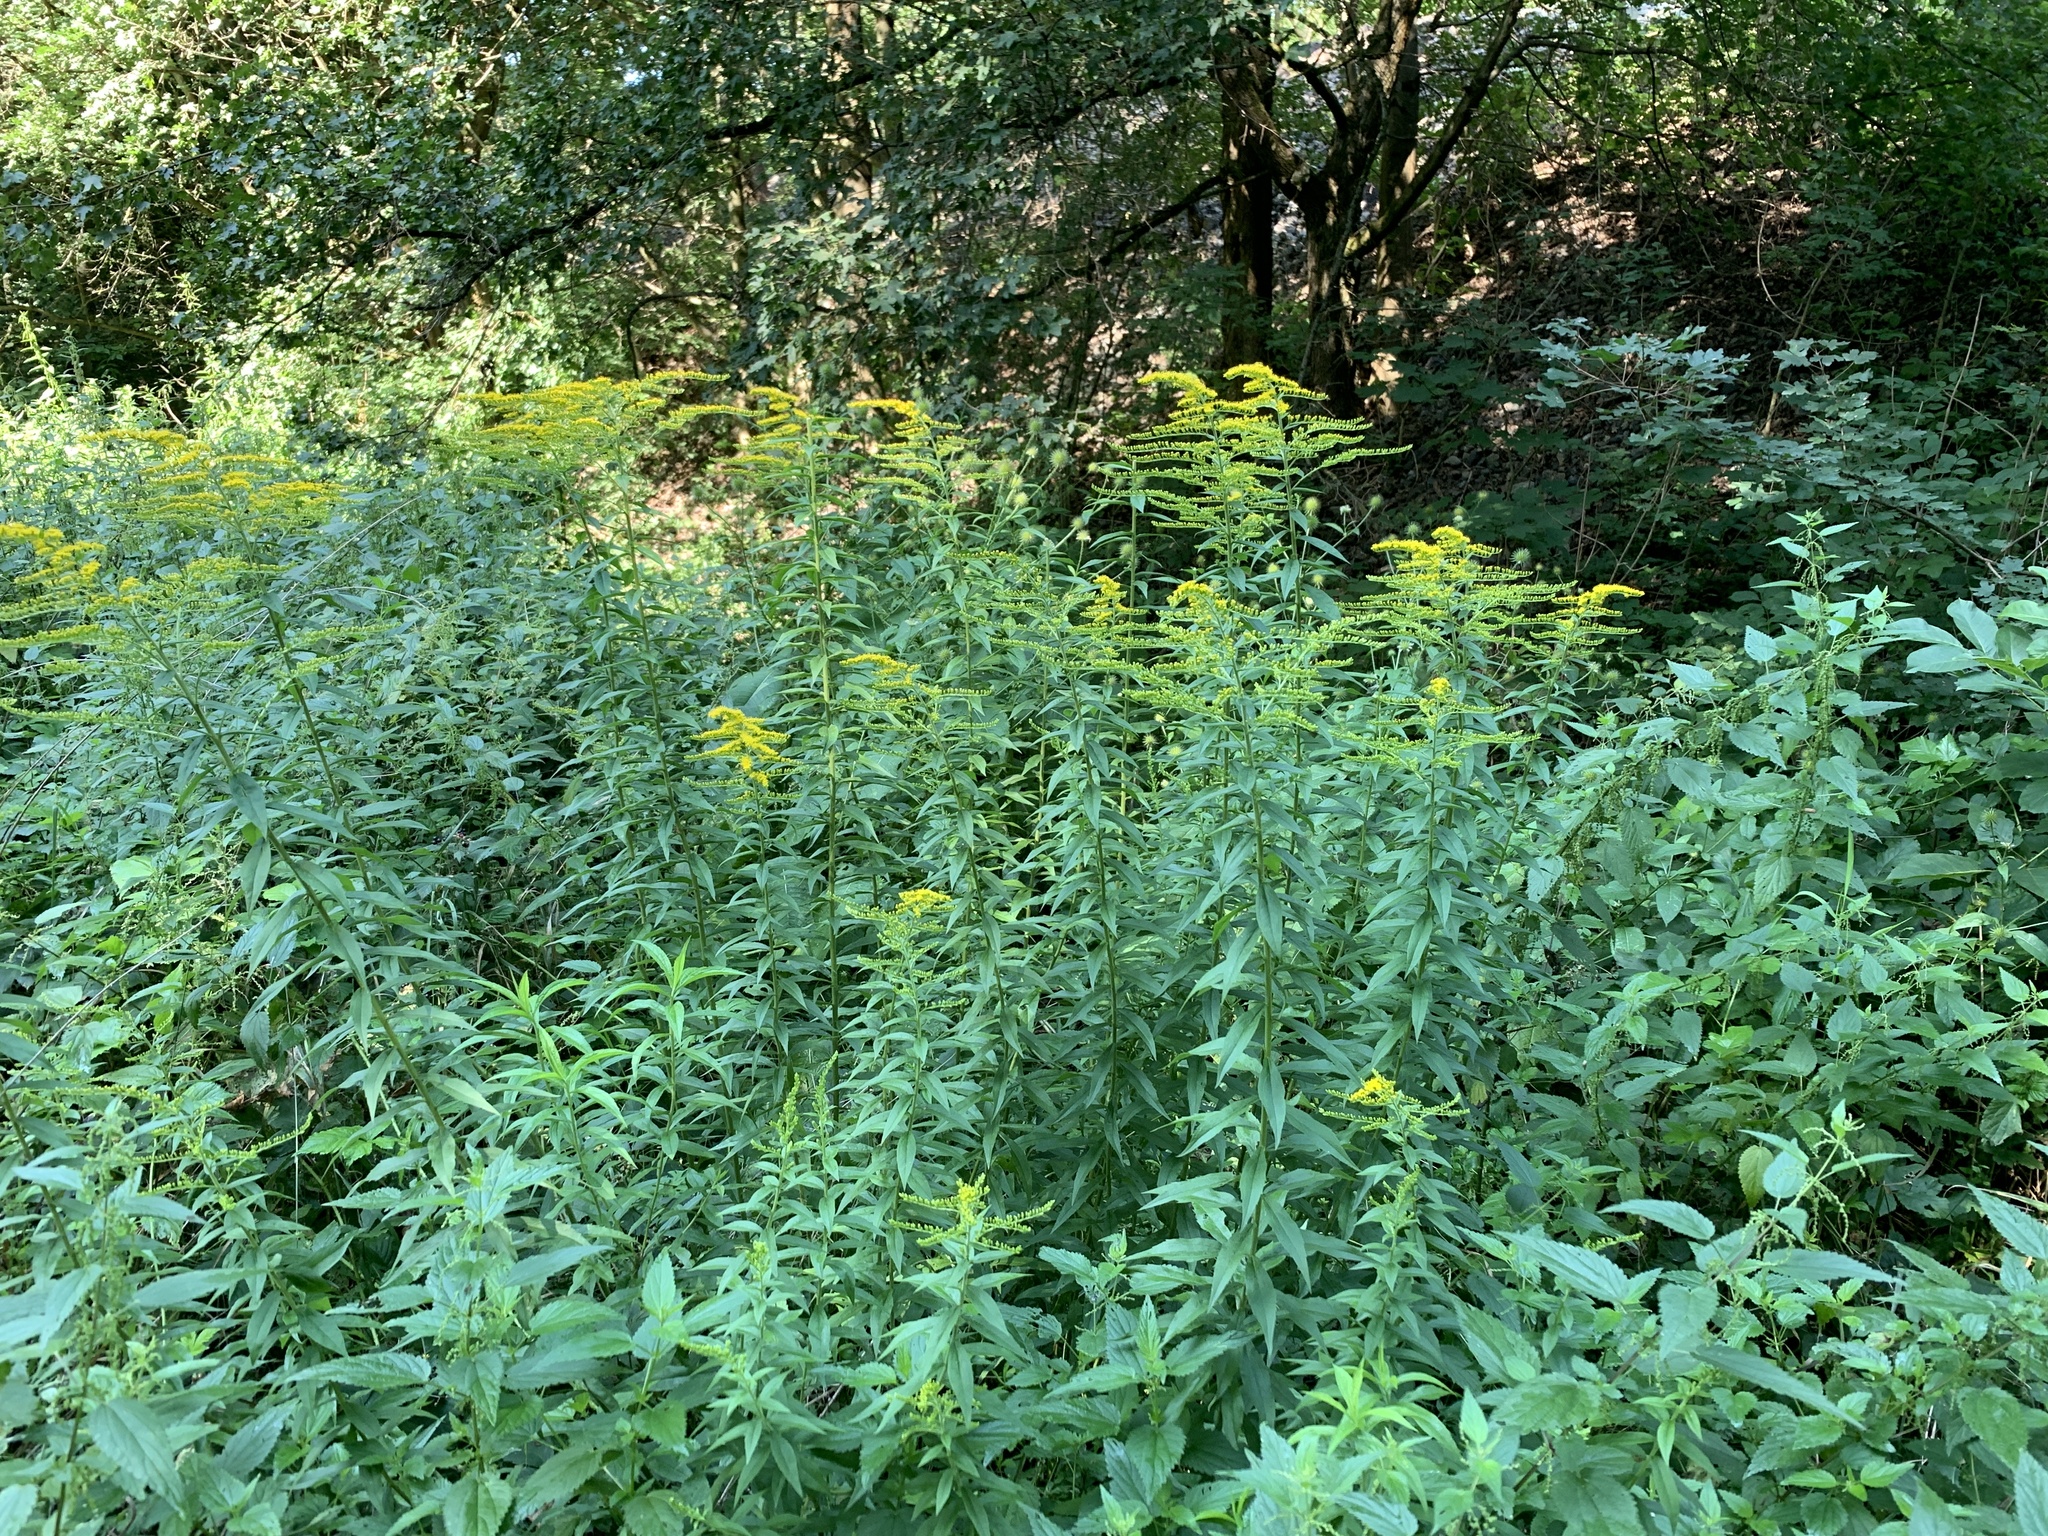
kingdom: Plantae
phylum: Tracheophyta
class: Magnoliopsida
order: Asterales
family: Asteraceae
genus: Solidago
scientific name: Solidago canadensis
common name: Canada goldenrod
